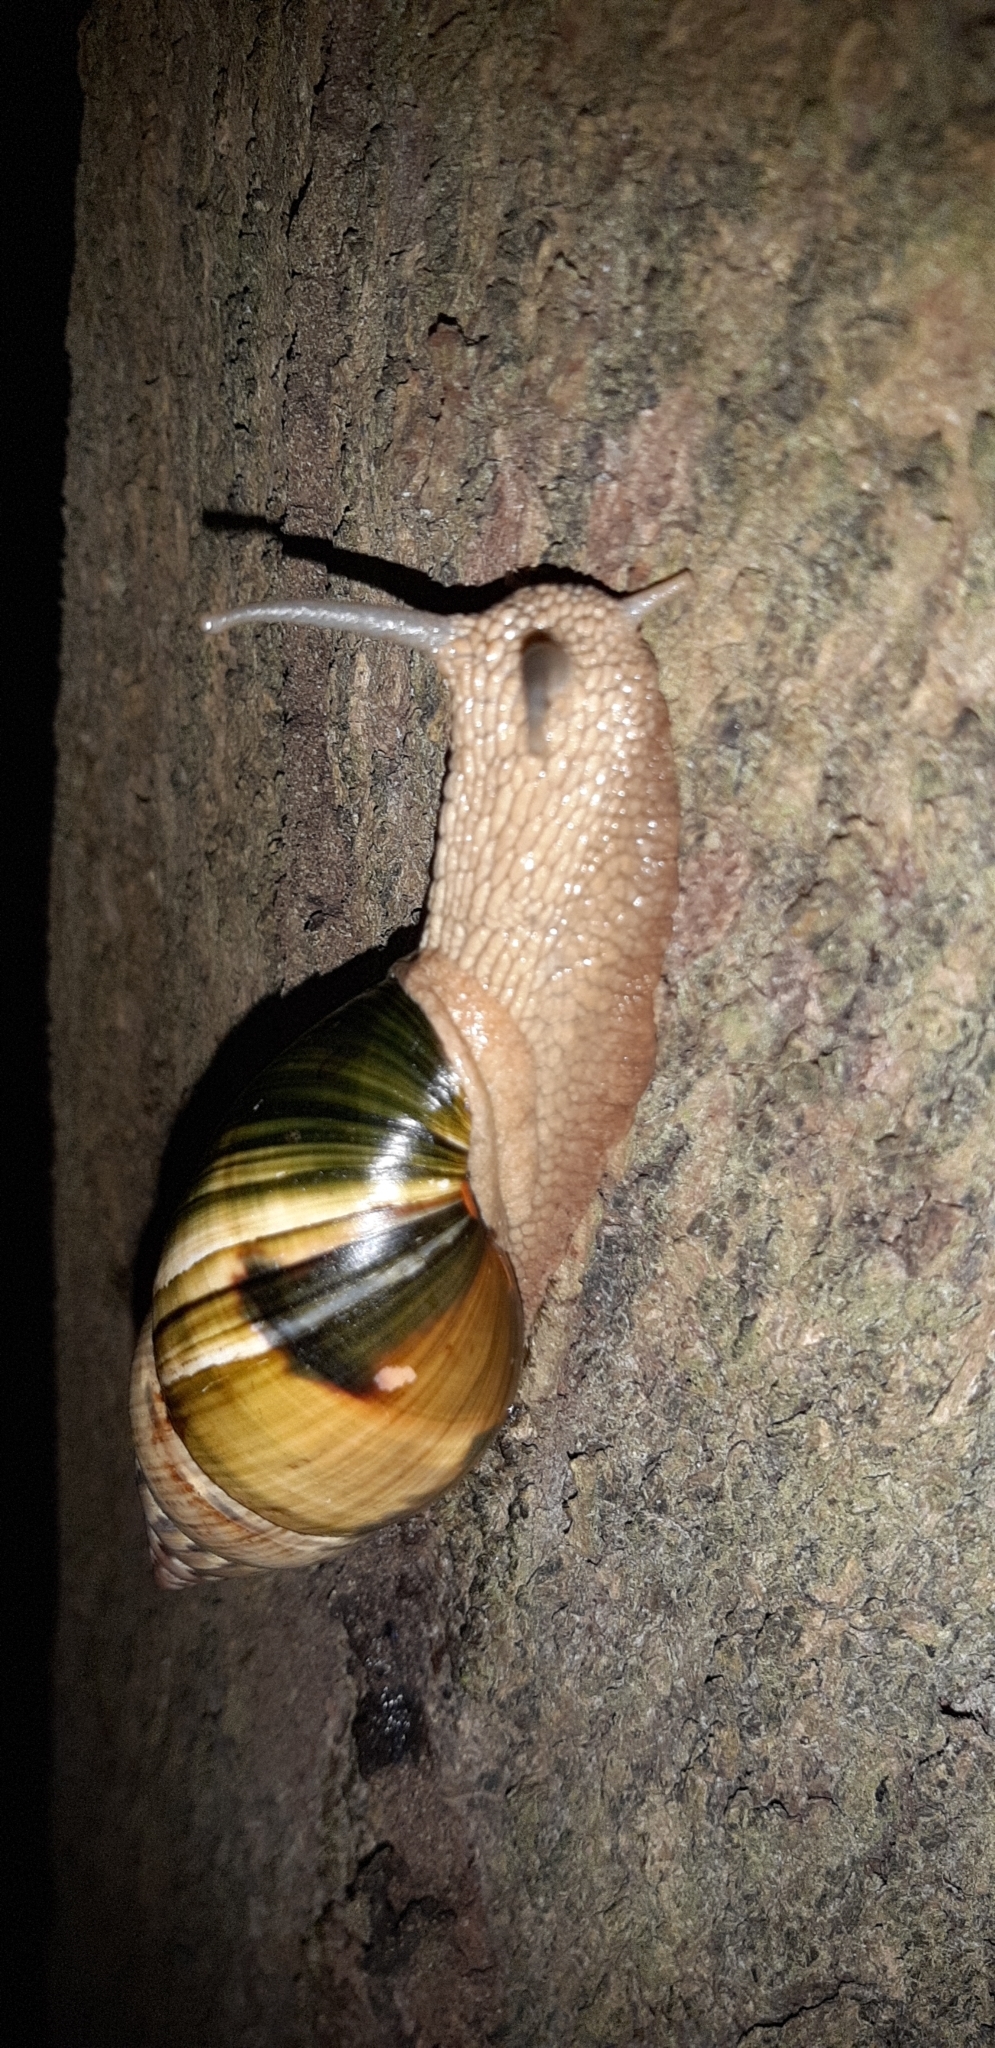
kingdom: Animalia
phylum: Mollusca
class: Gastropoda
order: Stylommatophora
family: Orthalicidae
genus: Corona
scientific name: Corona incisa
